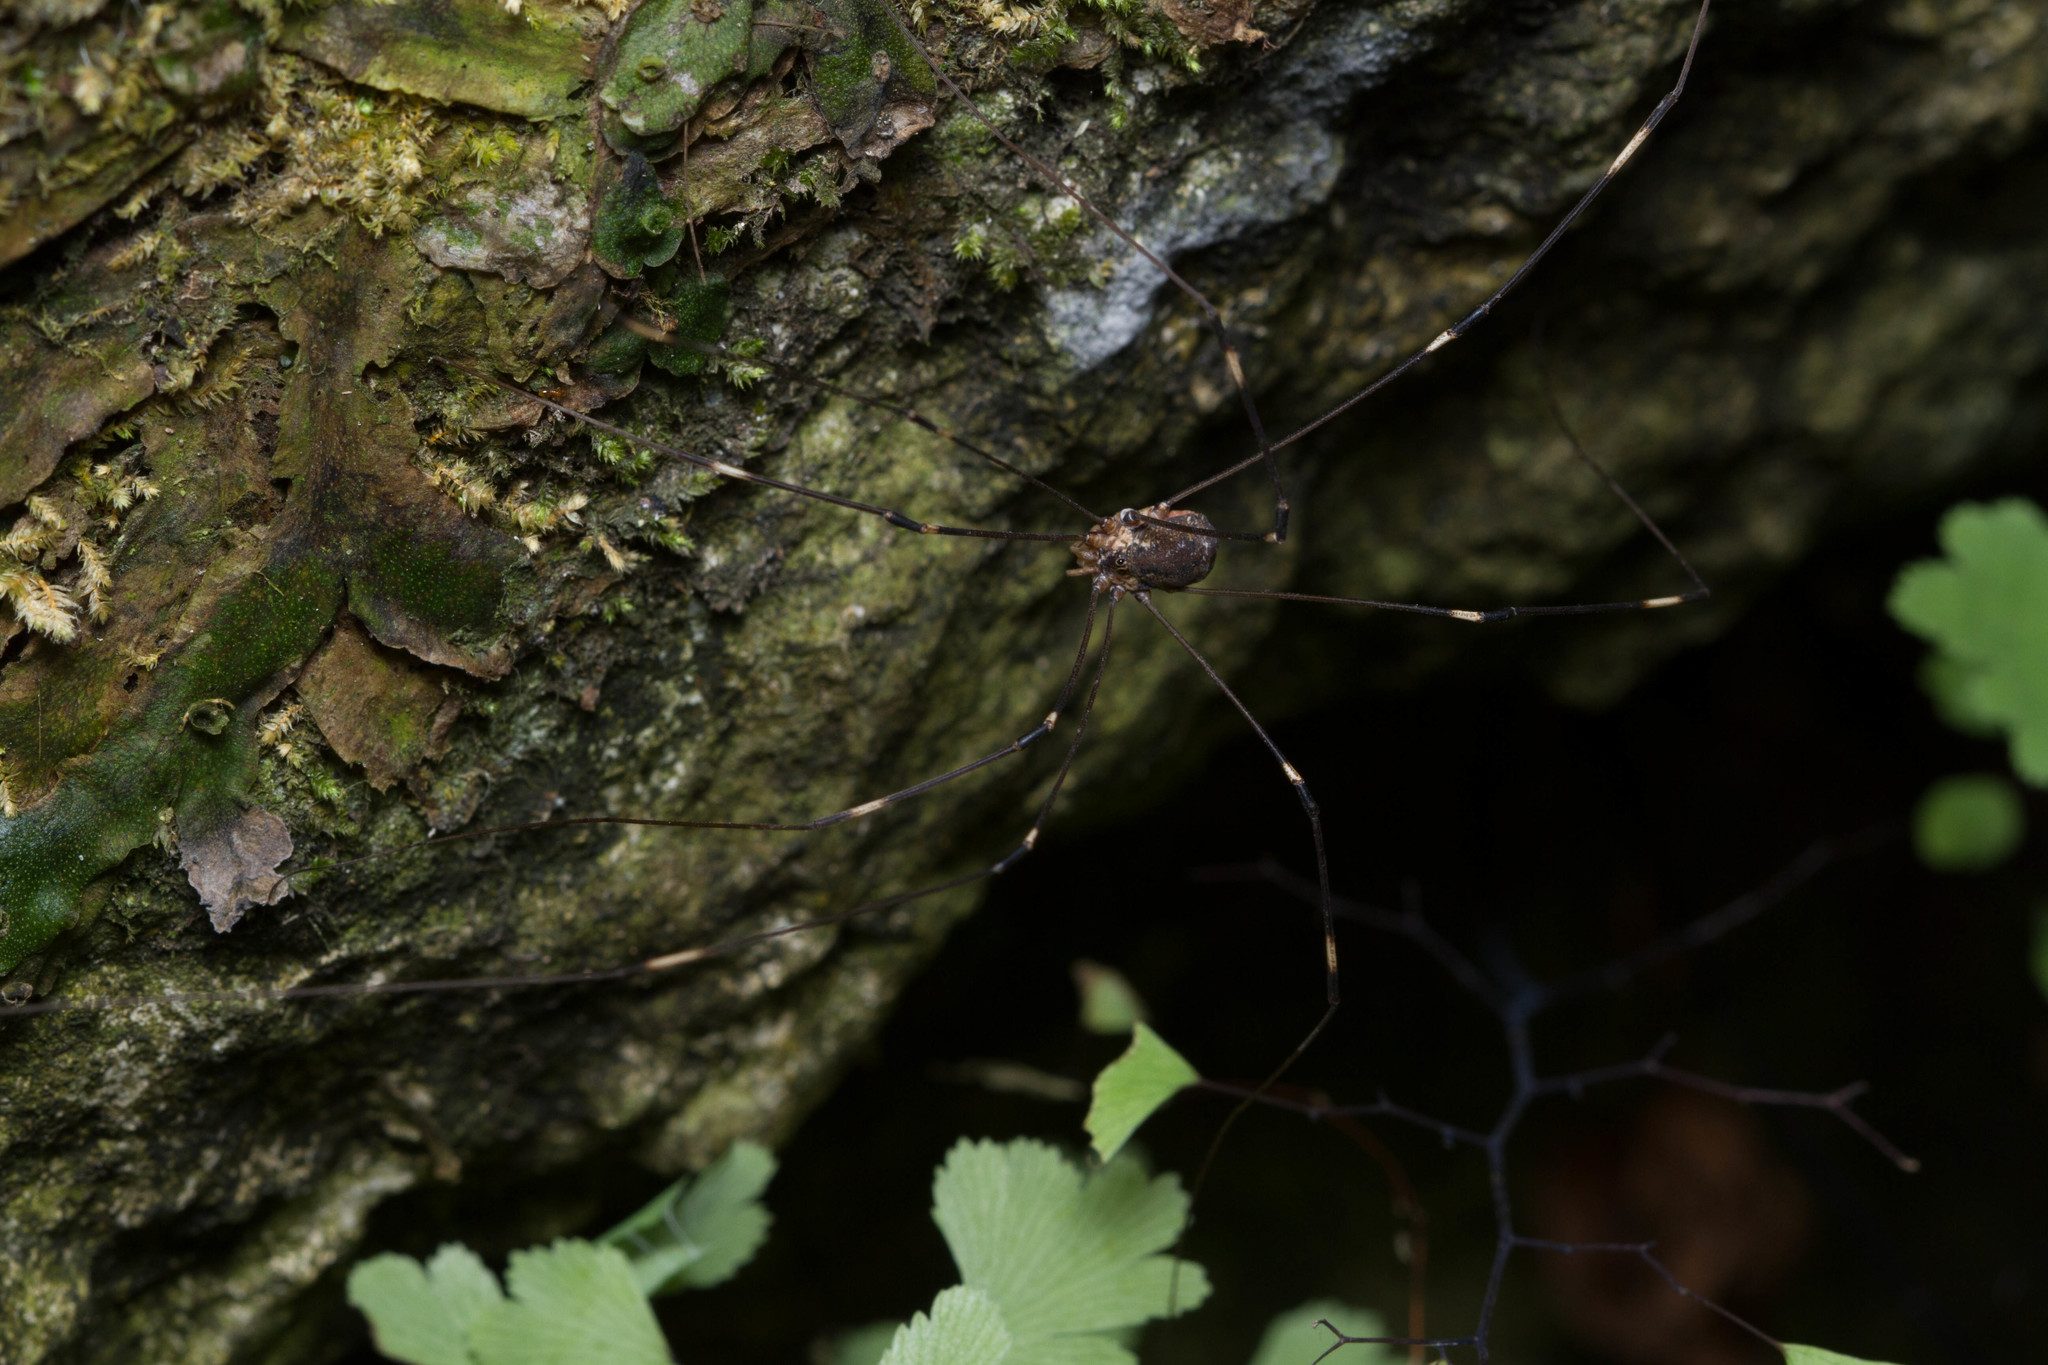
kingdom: Animalia
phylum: Arthropoda
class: Arachnida
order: Opiliones
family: Sclerosomatidae
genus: Leiobunum
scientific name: Leiobunum townsendi
